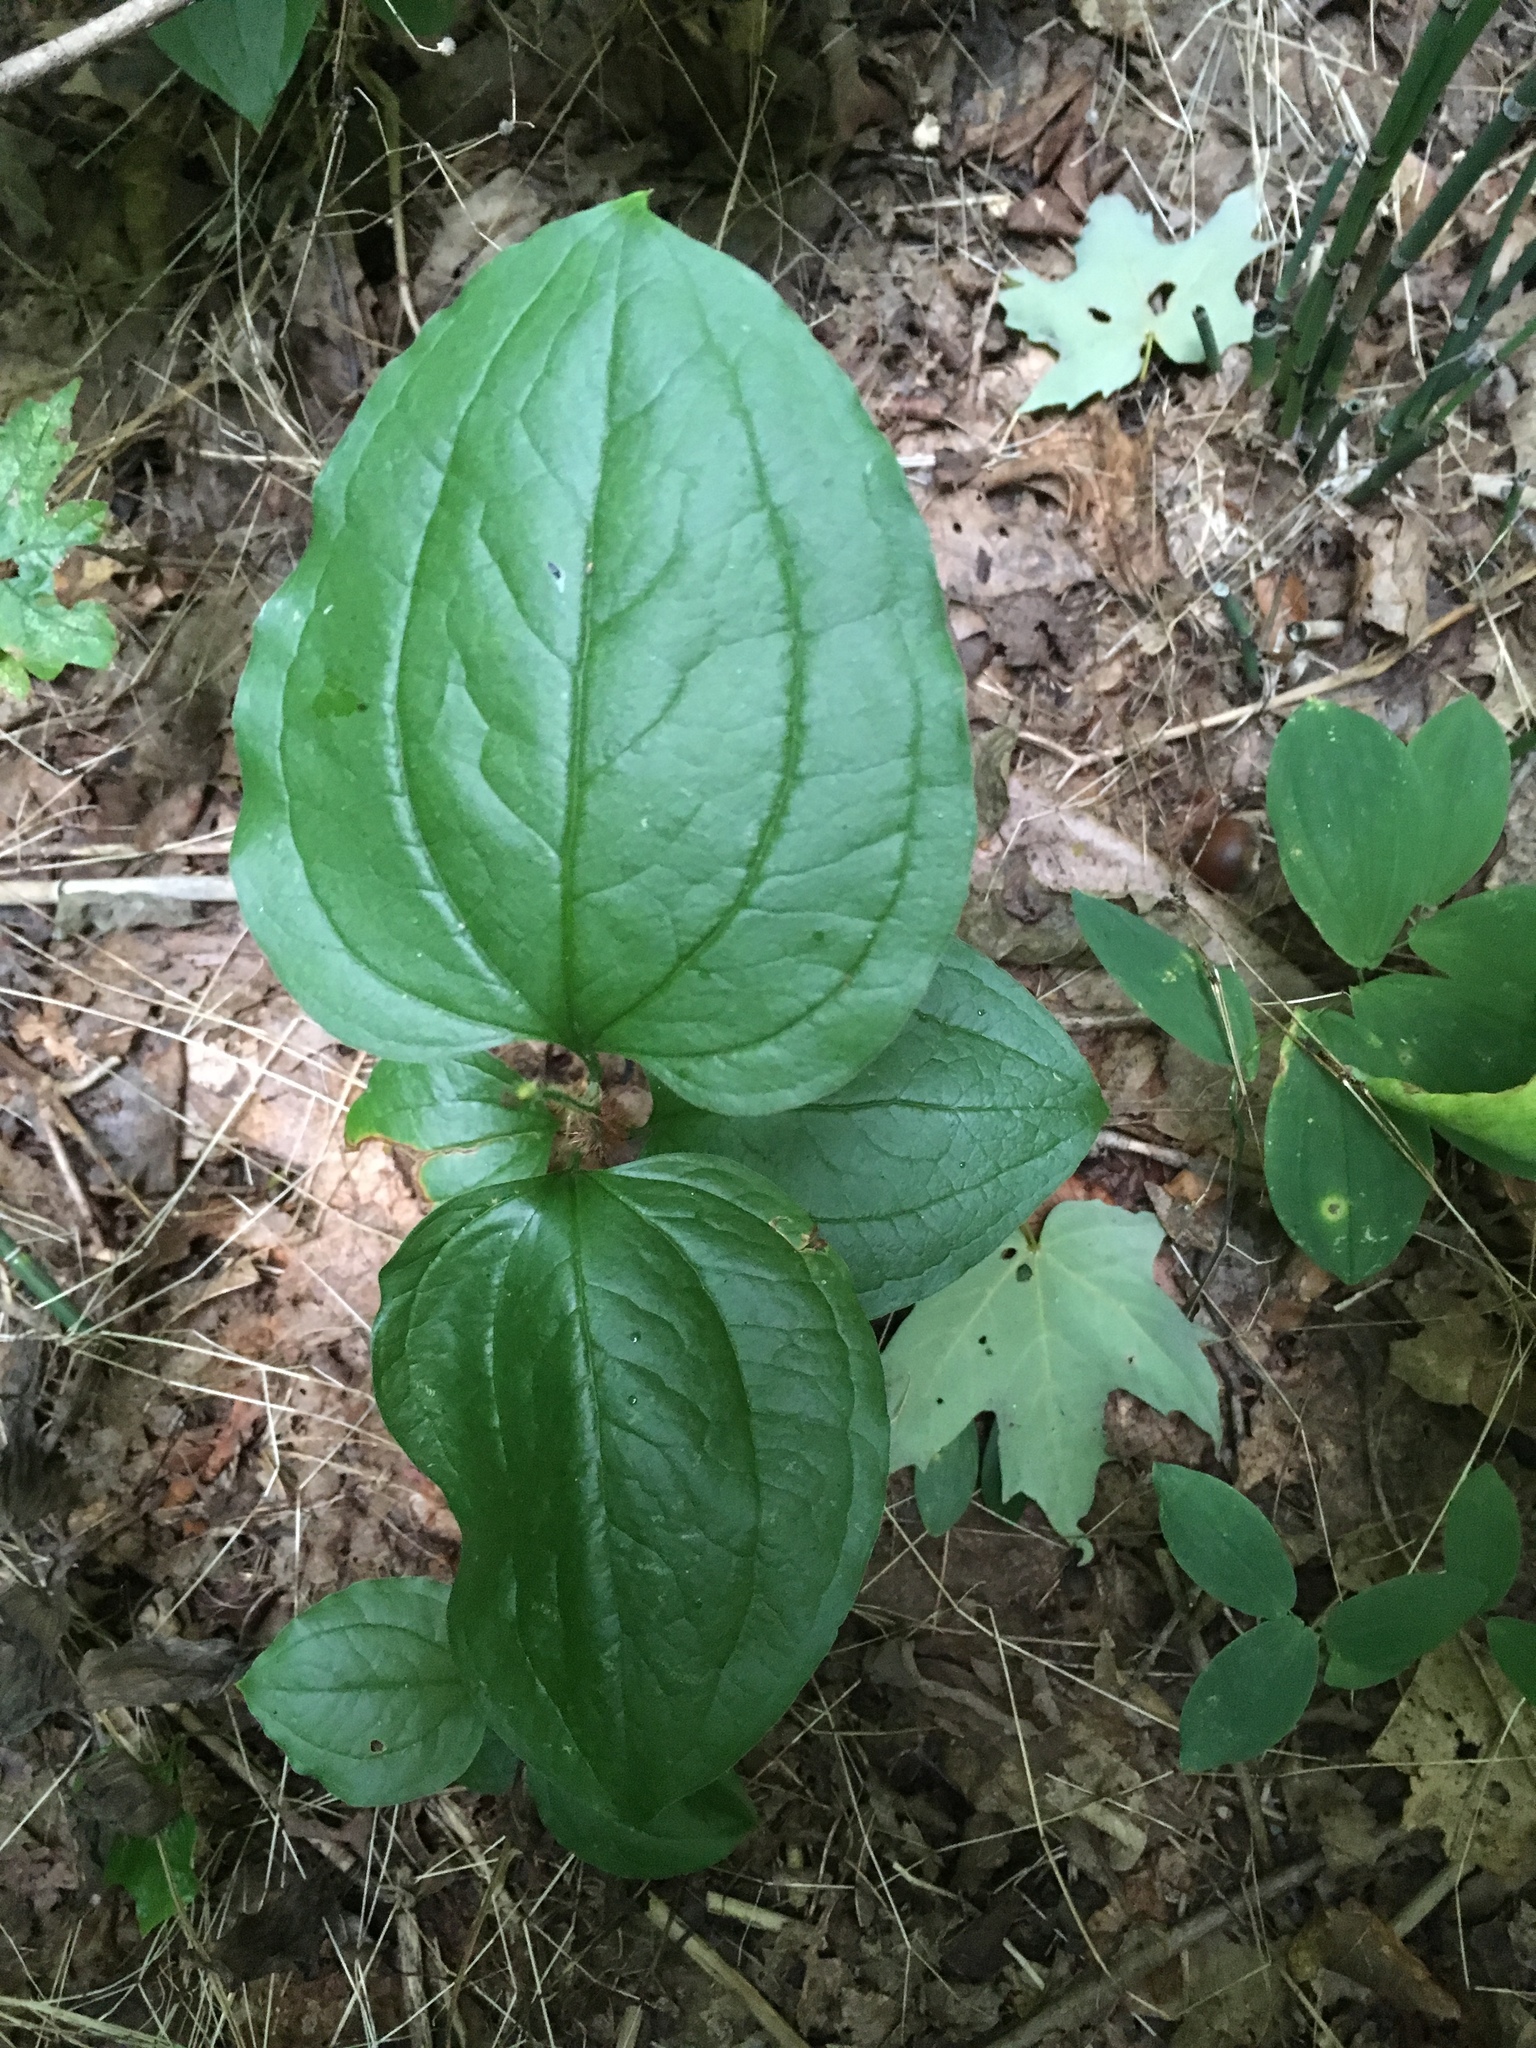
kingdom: Plantae
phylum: Tracheophyta
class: Liliopsida
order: Liliales
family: Smilacaceae
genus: Smilax
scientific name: Smilax tamnoides
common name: Hellfetter
